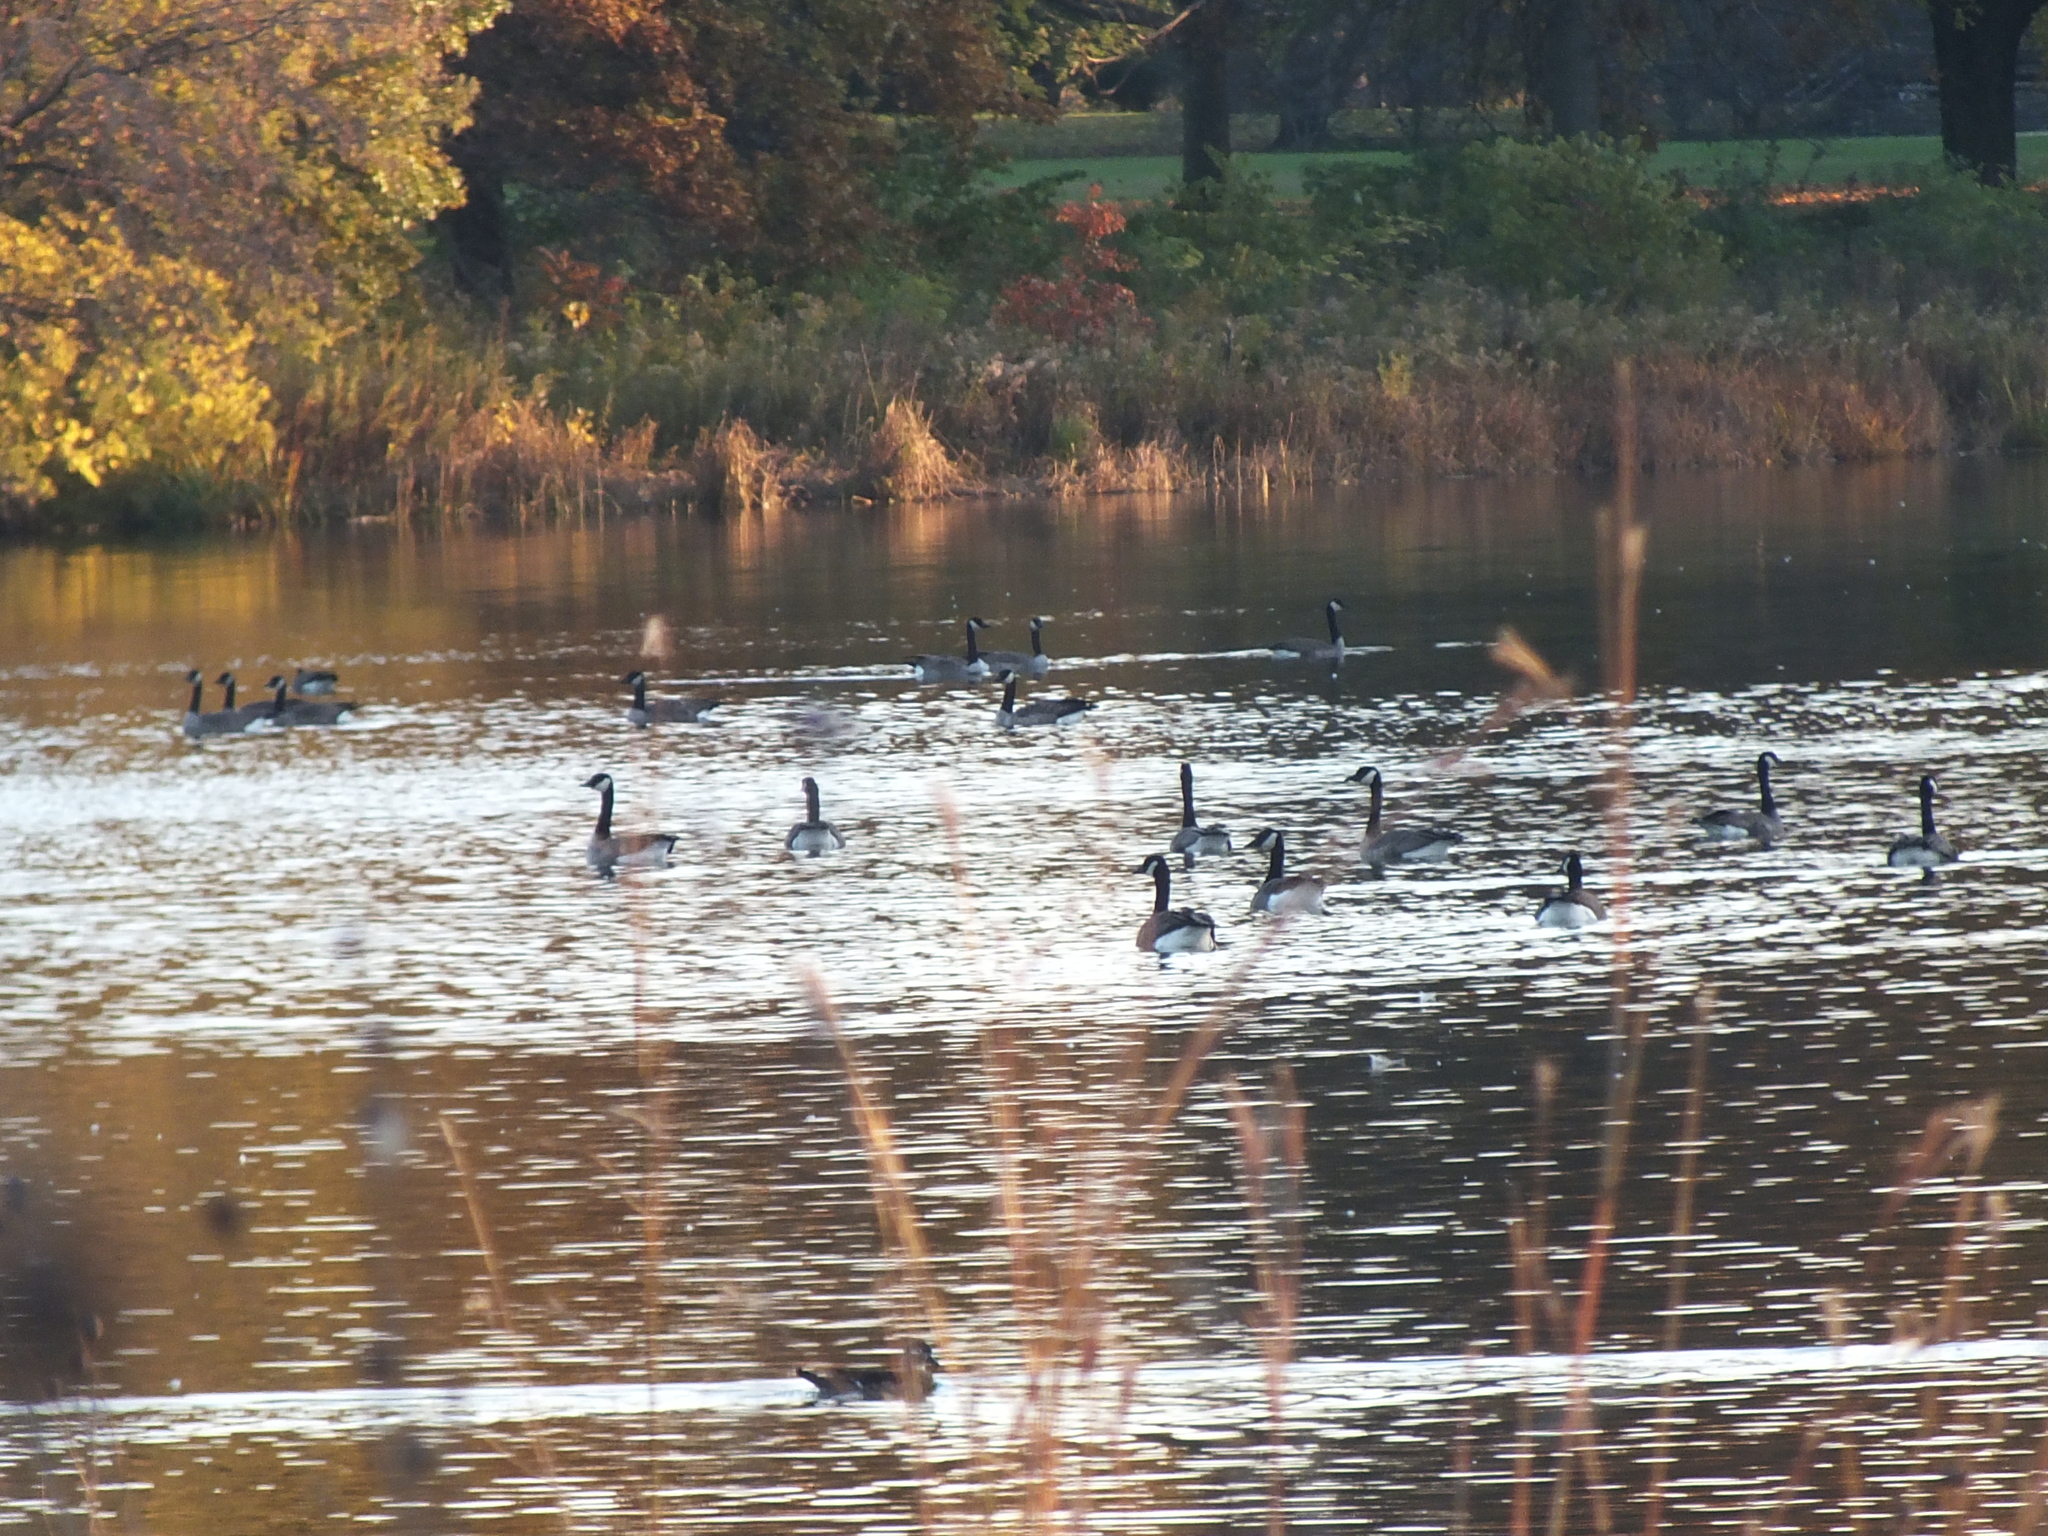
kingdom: Animalia
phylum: Chordata
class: Aves
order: Anseriformes
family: Anatidae
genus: Branta
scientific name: Branta canadensis
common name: Canada goose
